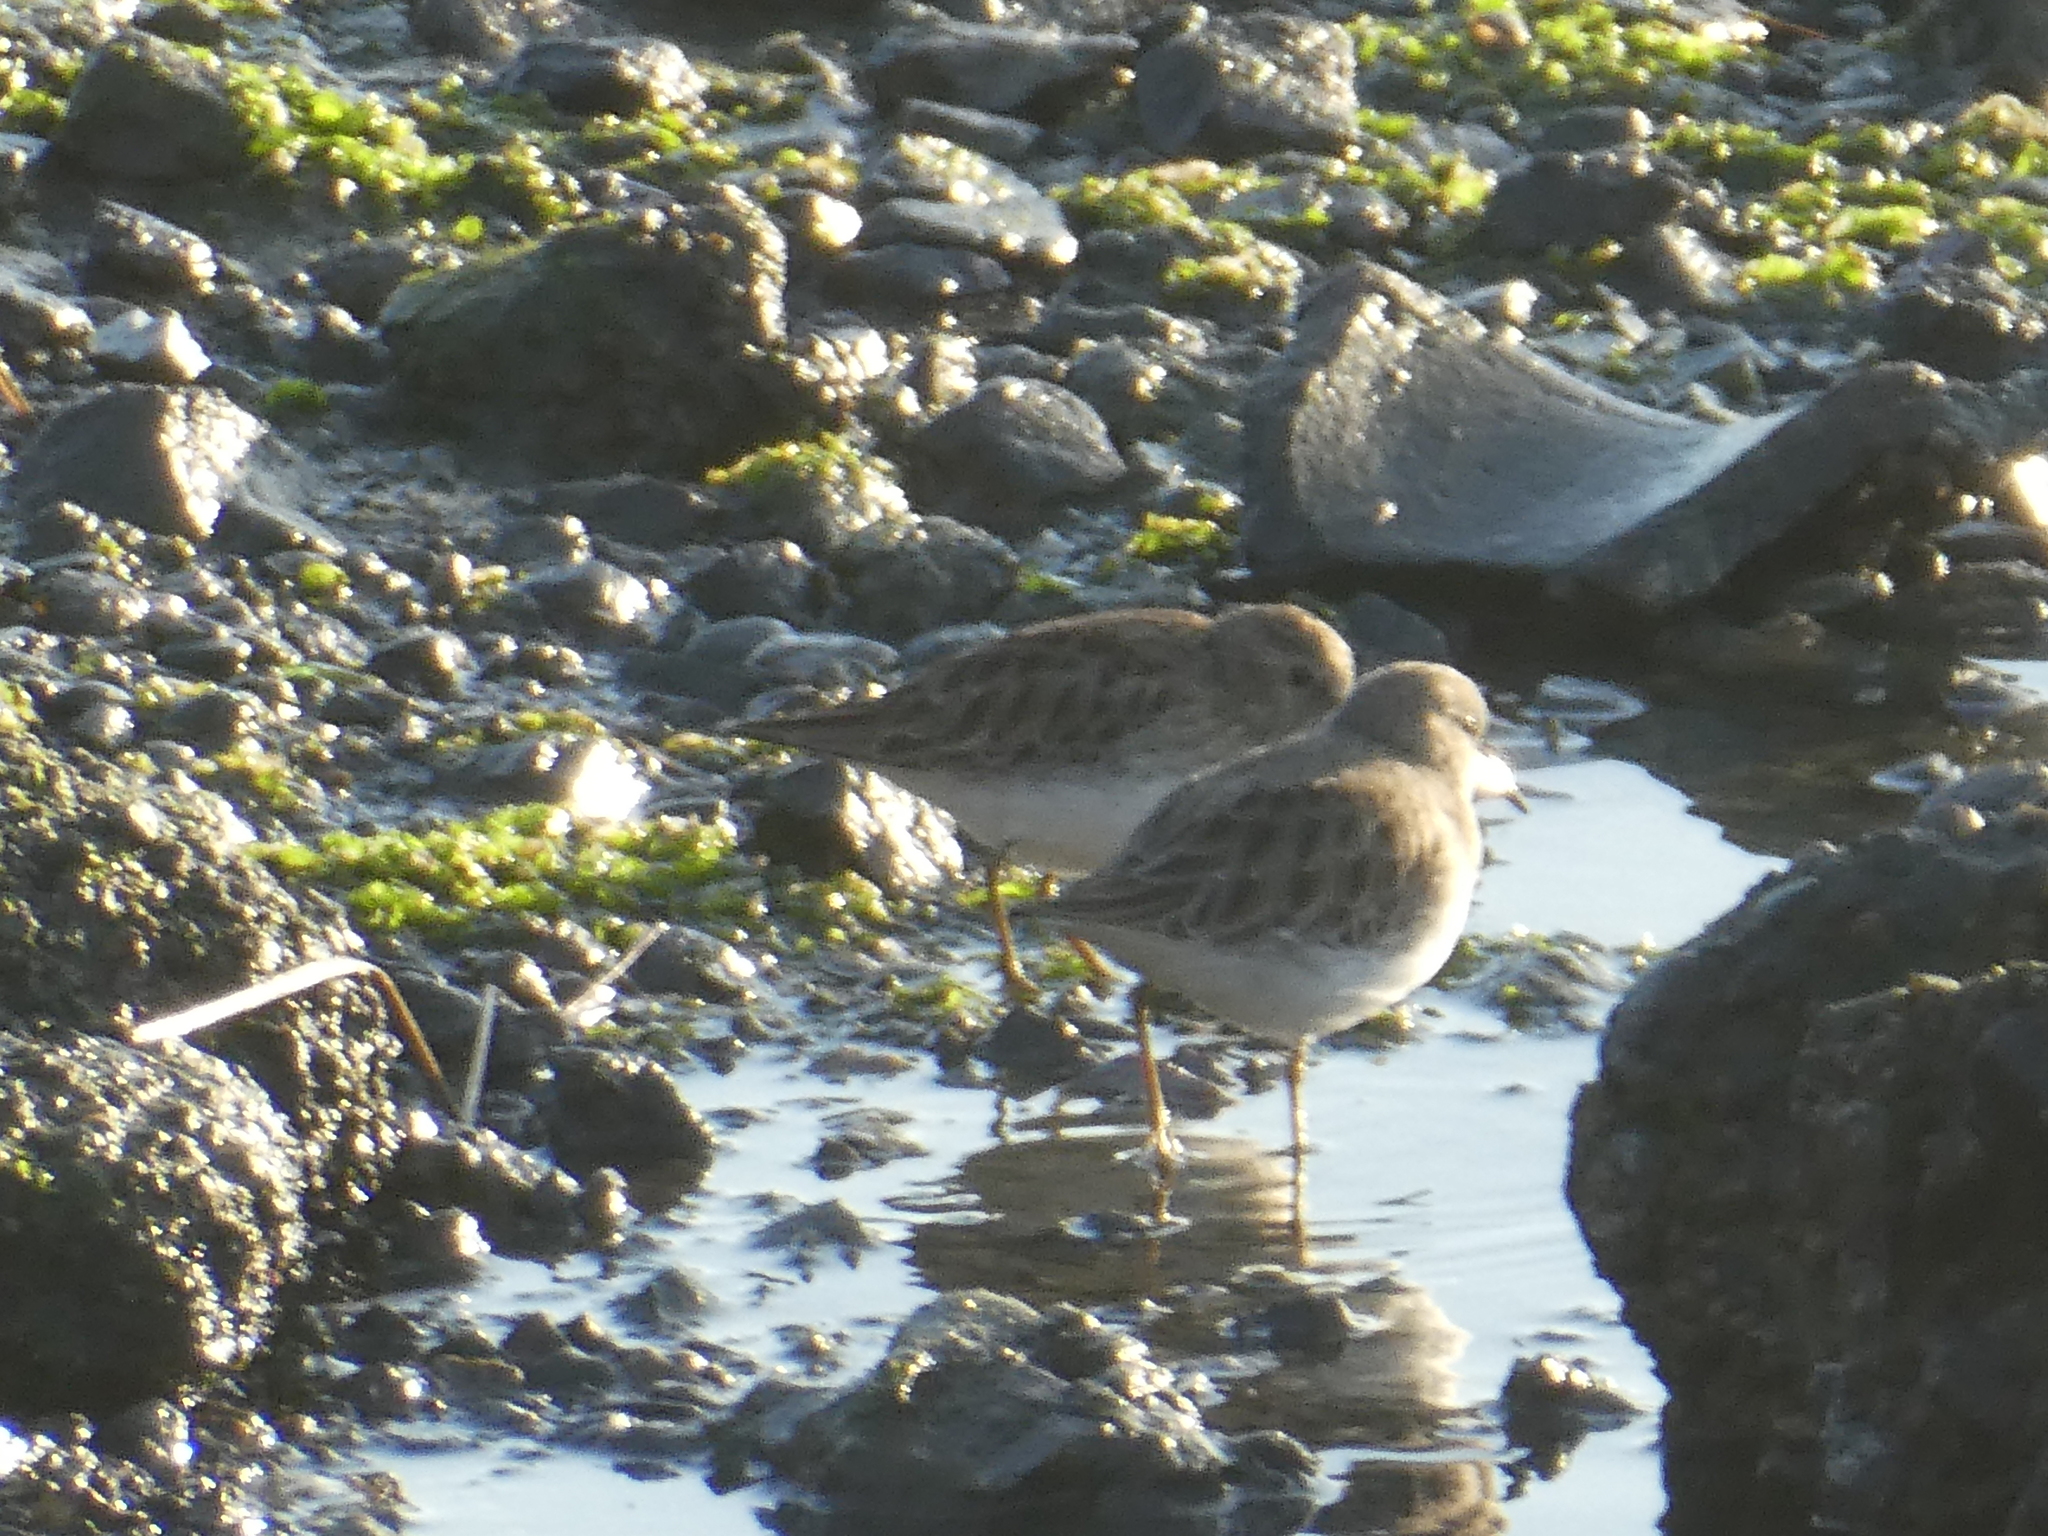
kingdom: Animalia
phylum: Chordata
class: Aves
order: Charadriiformes
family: Scolopacidae
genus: Calidris
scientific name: Calidris minutilla
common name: Least sandpiper
